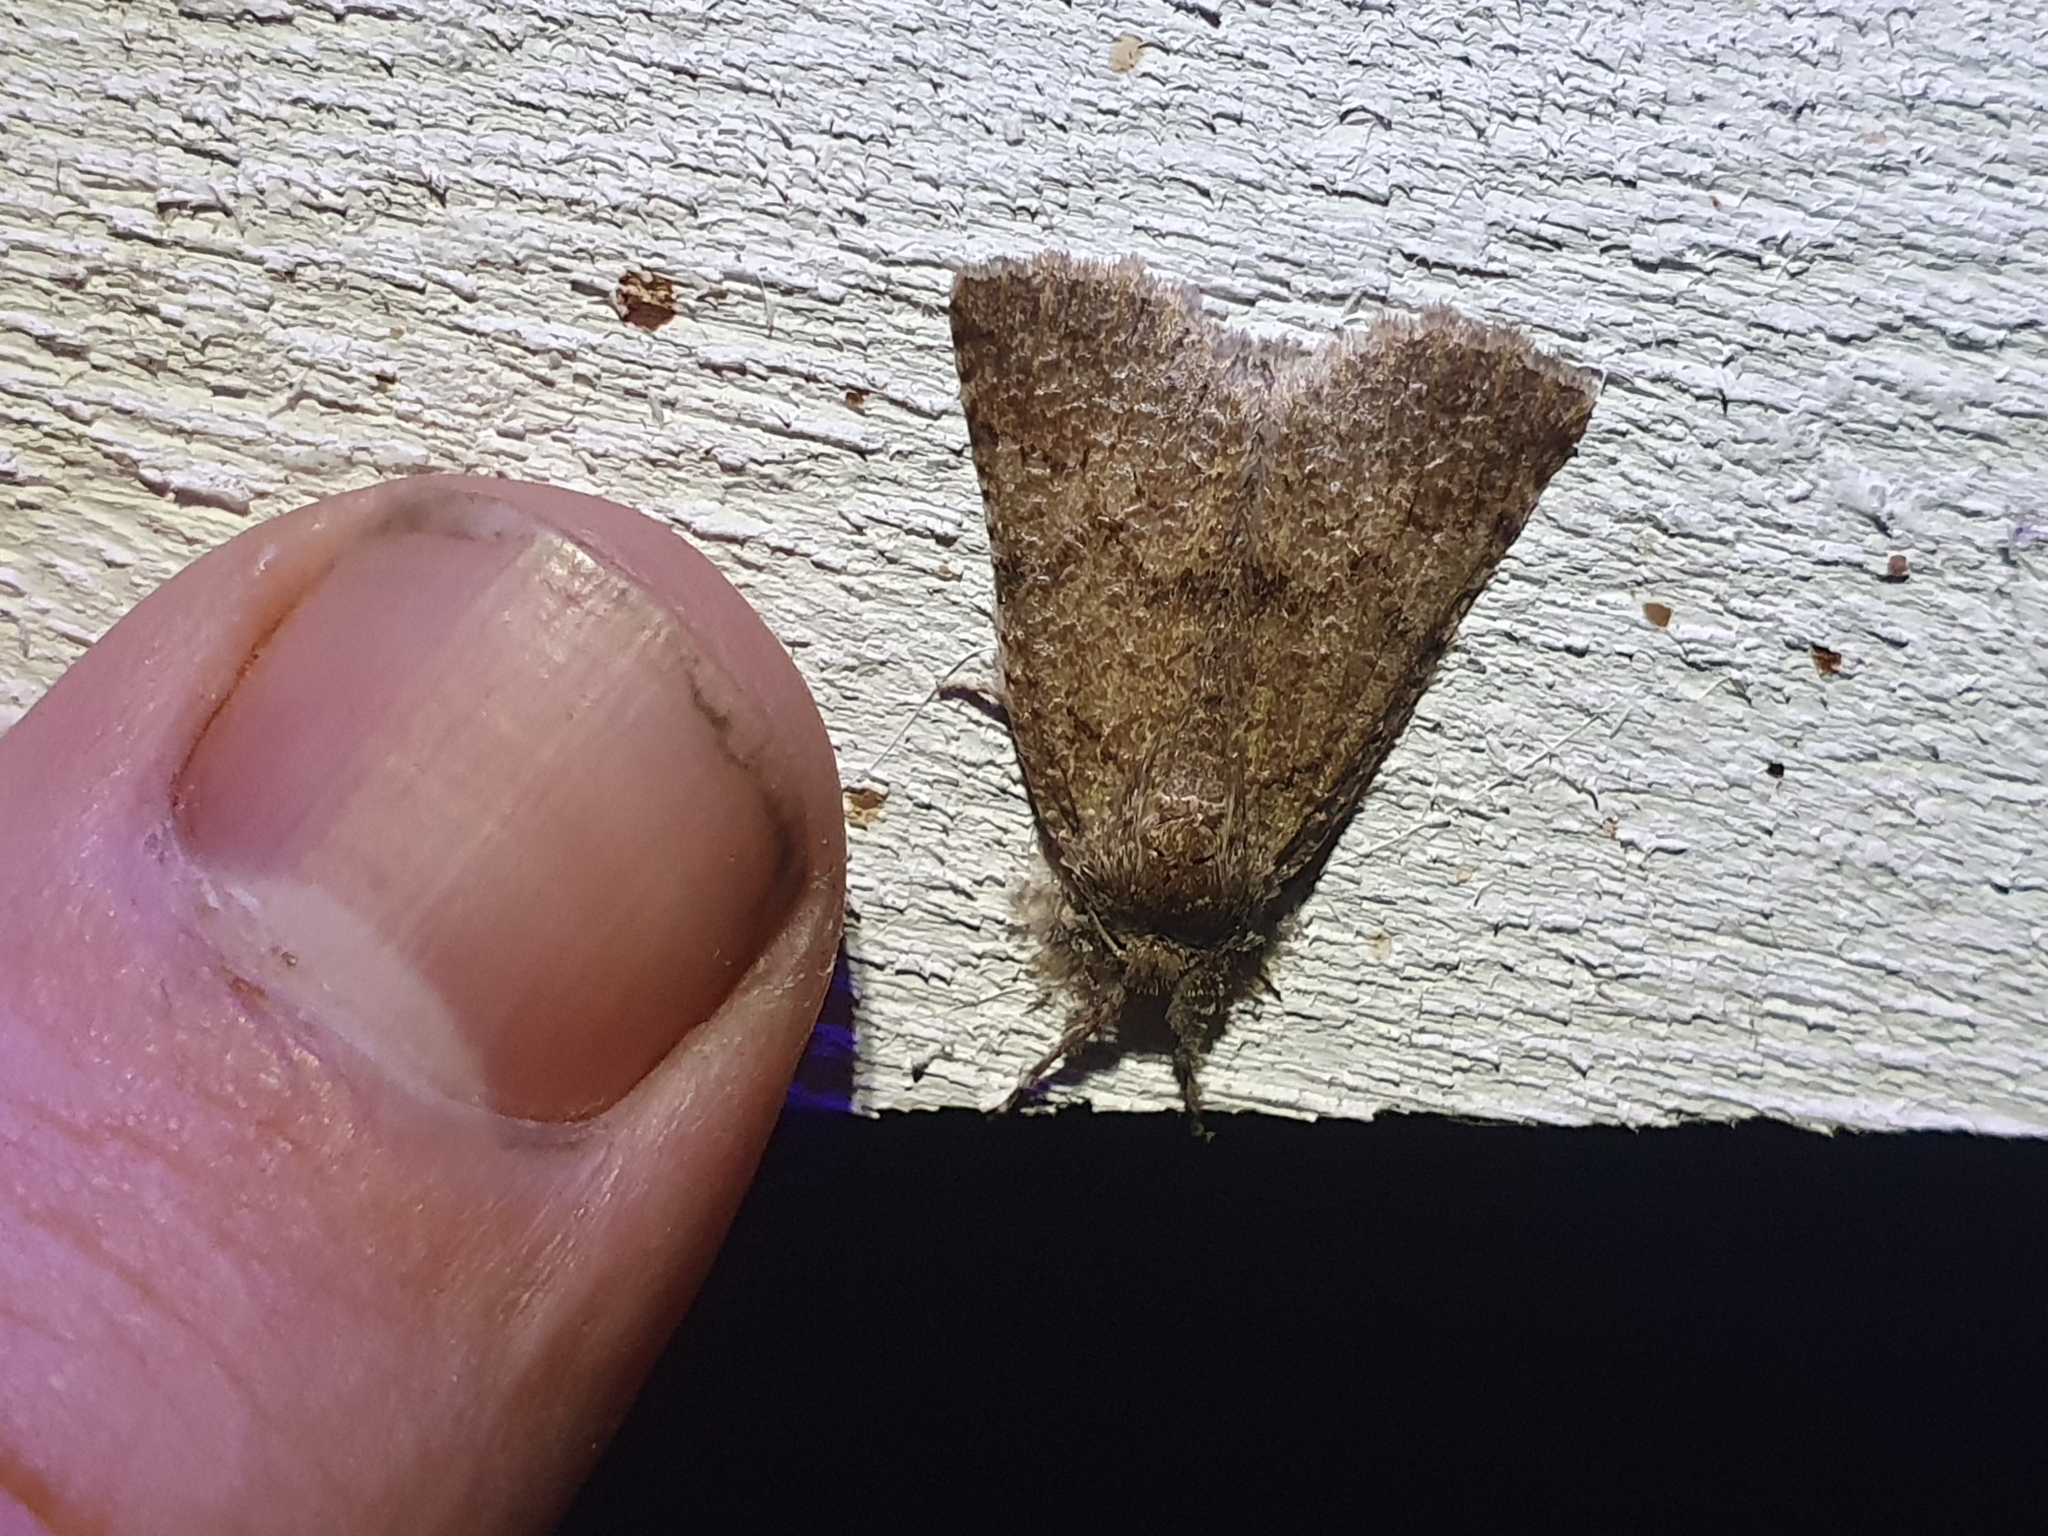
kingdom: Animalia
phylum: Arthropoda
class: Insecta
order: Lepidoptera
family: Geometridae
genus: Declana
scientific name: Declana floccosa
